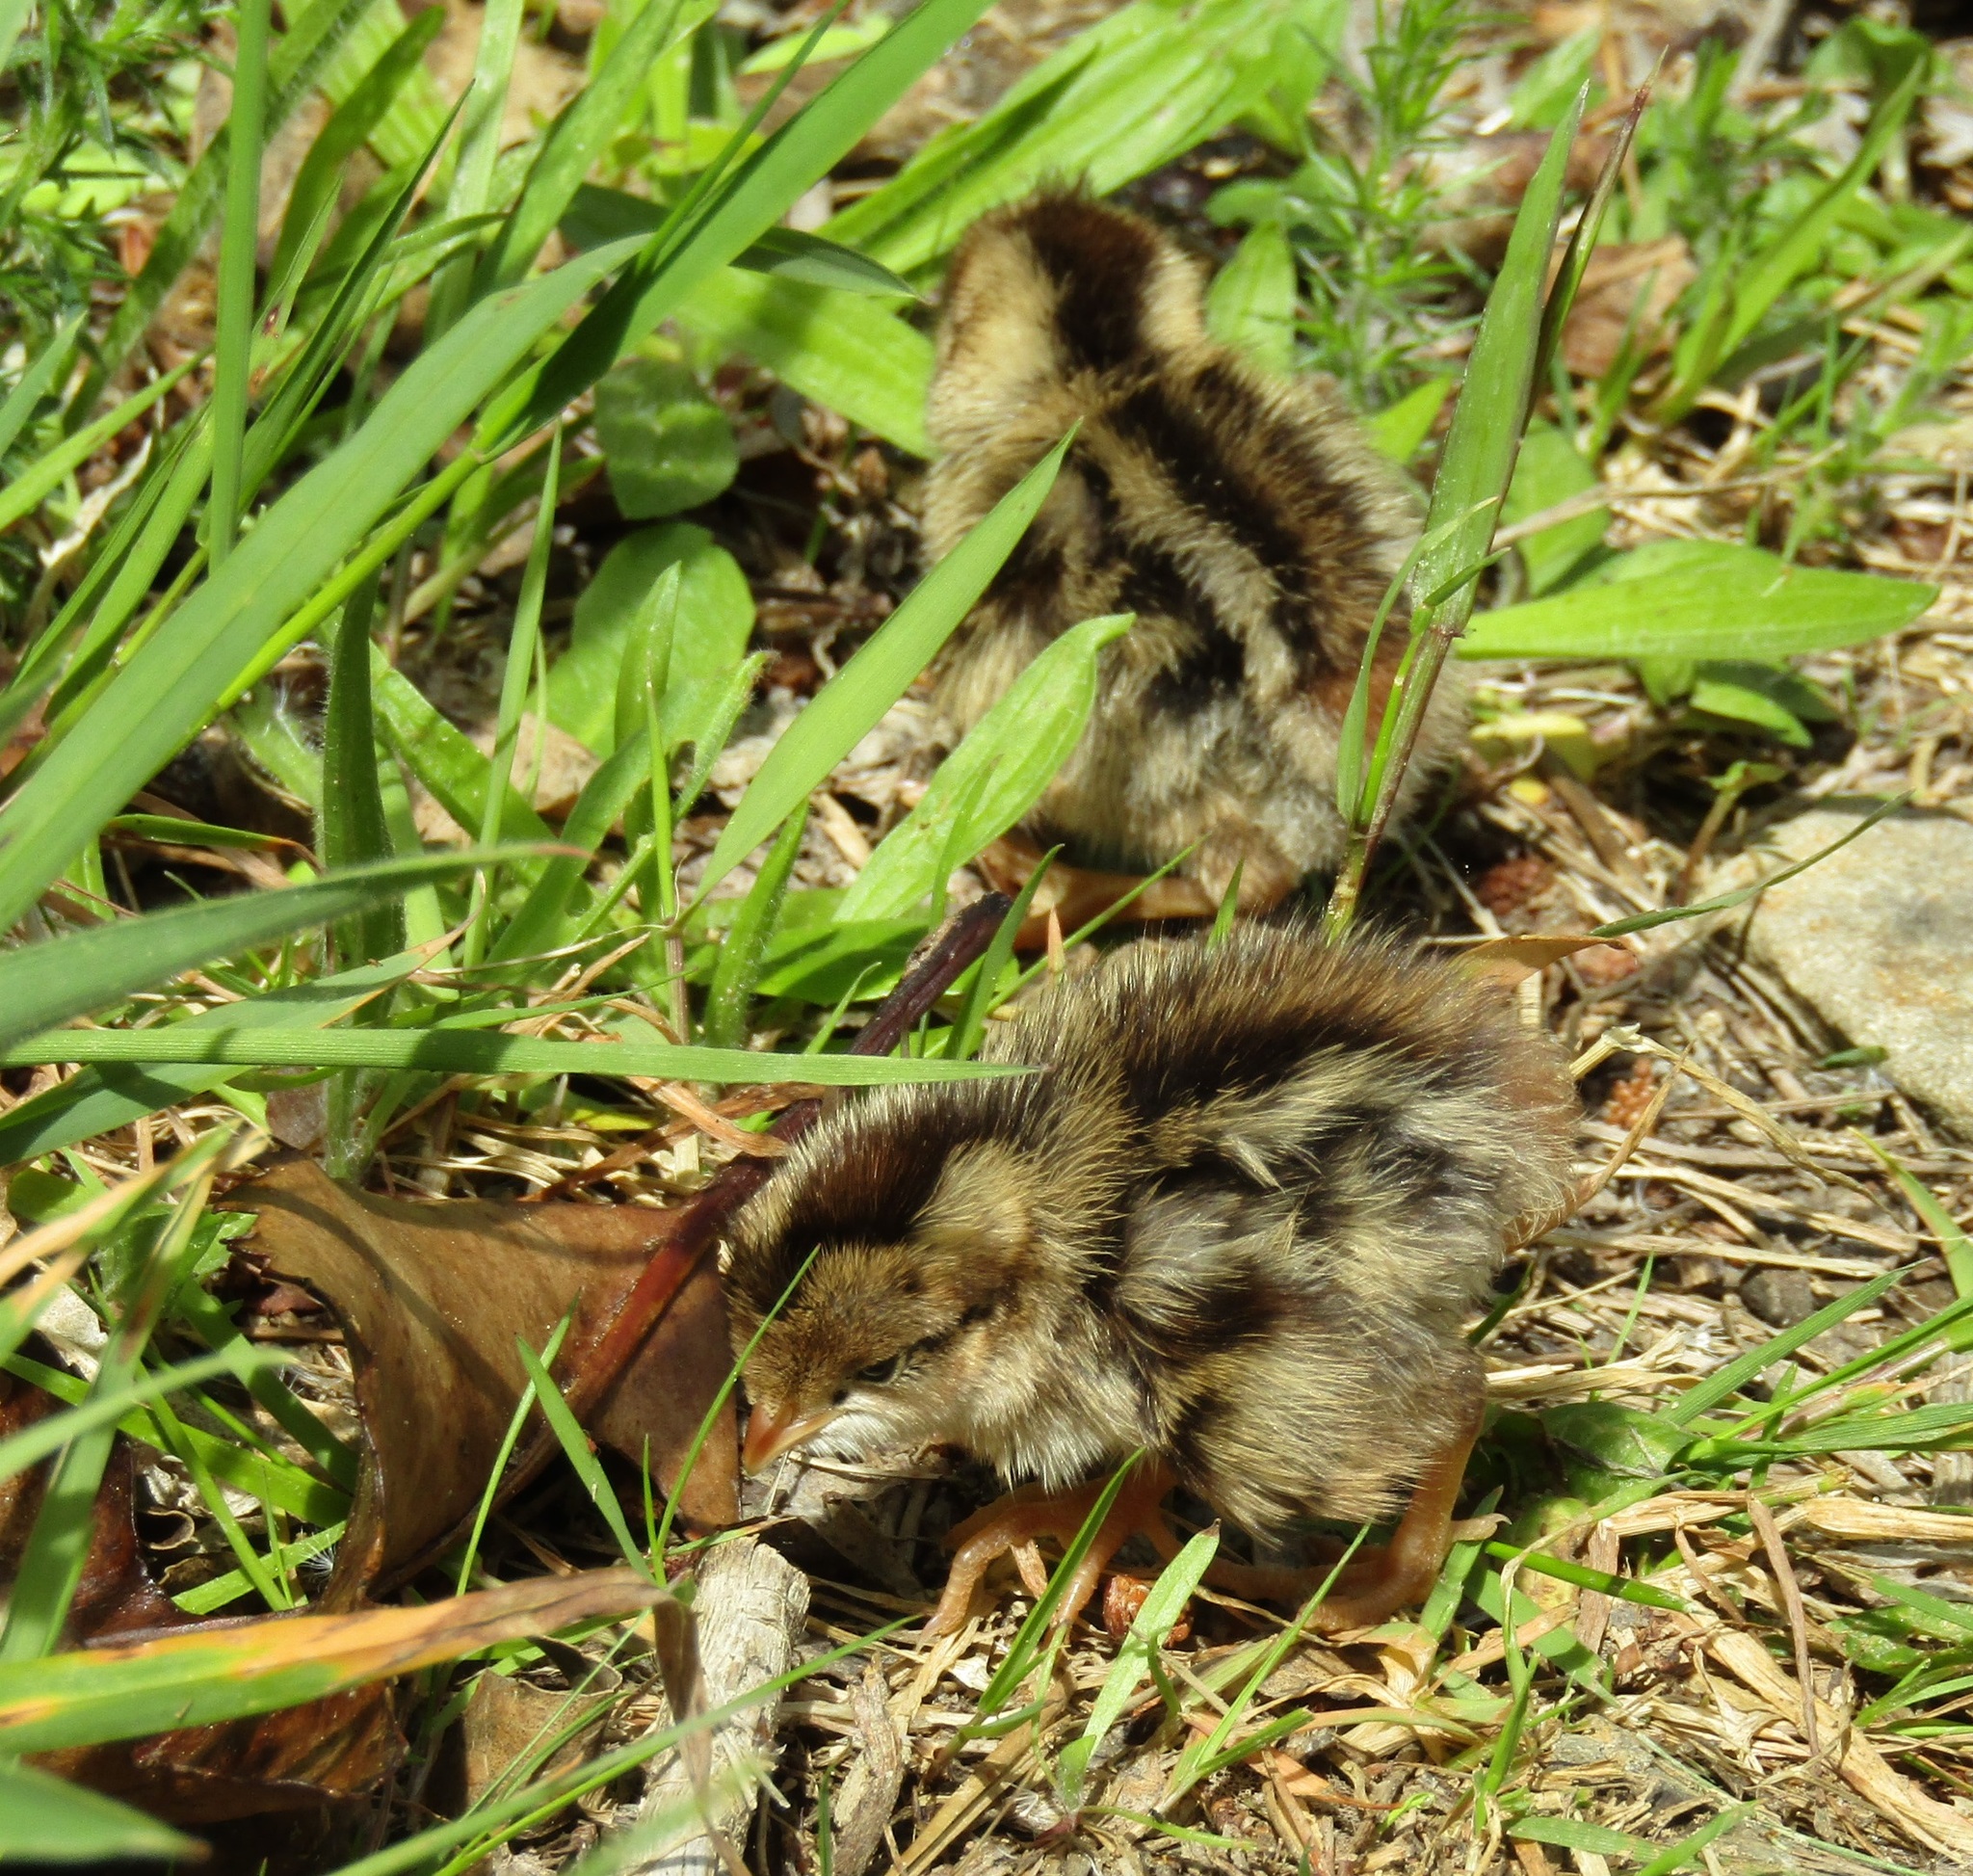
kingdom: Animalia
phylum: Chordata
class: Aves
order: Galliformes
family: Odontophoridae
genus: Callipepla
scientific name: Callipepla californica
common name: California quail
